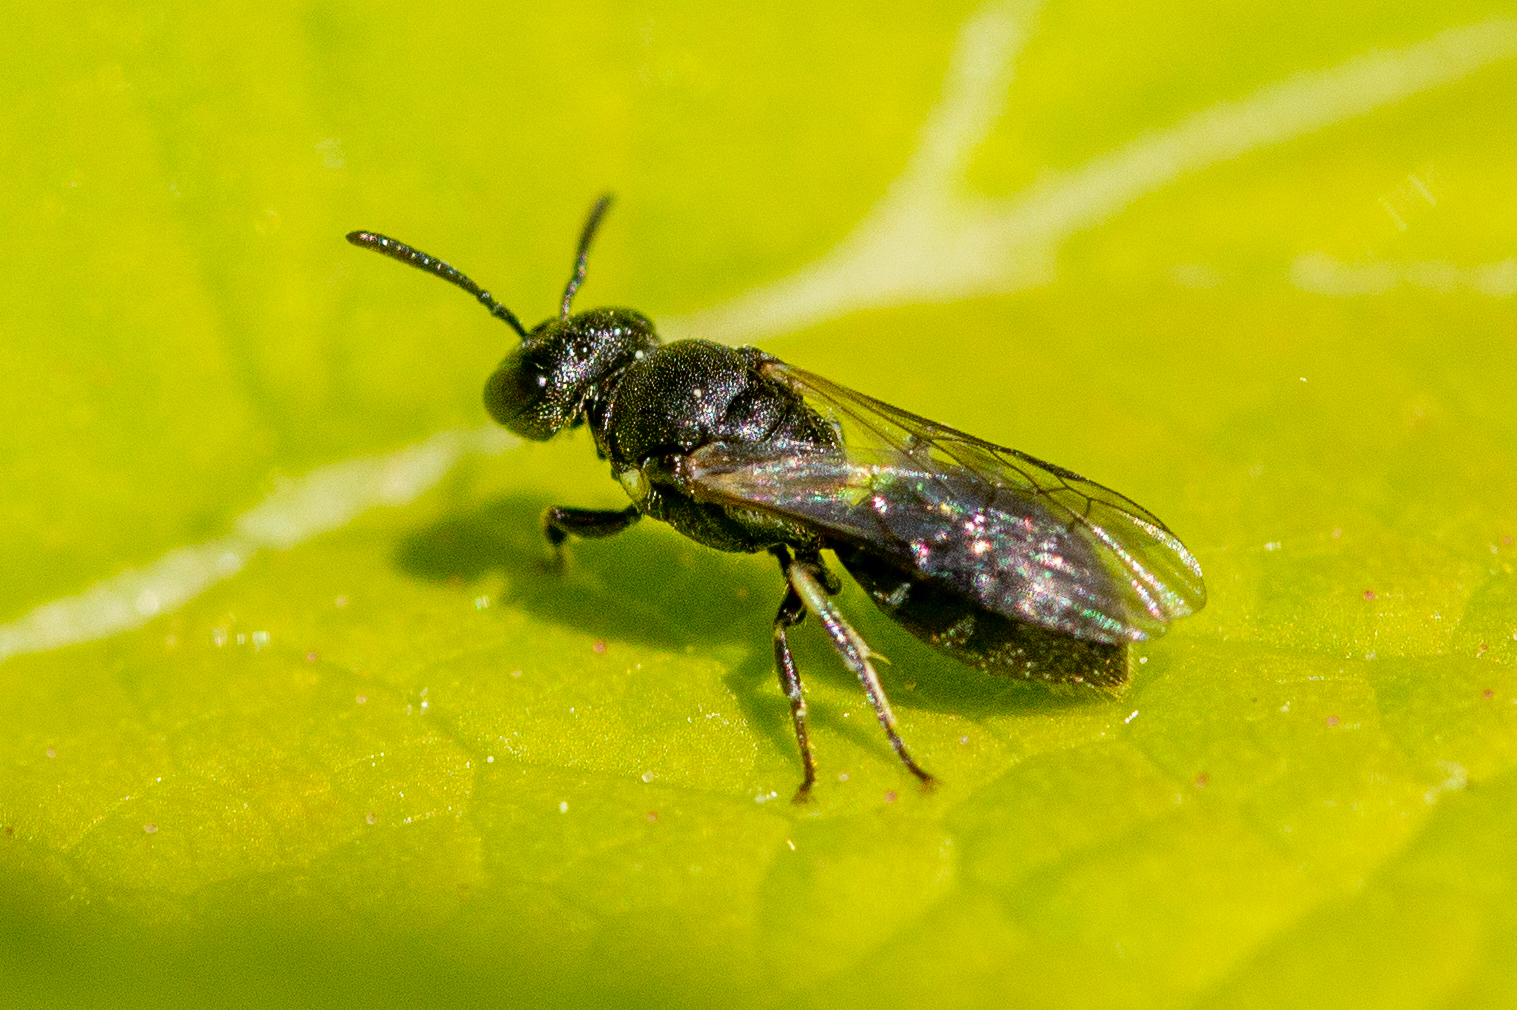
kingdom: Animalia
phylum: Arthropoda
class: Insecta
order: Hymenoptera
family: Colletidae
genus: Hylaeus
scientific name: Hylaeus
